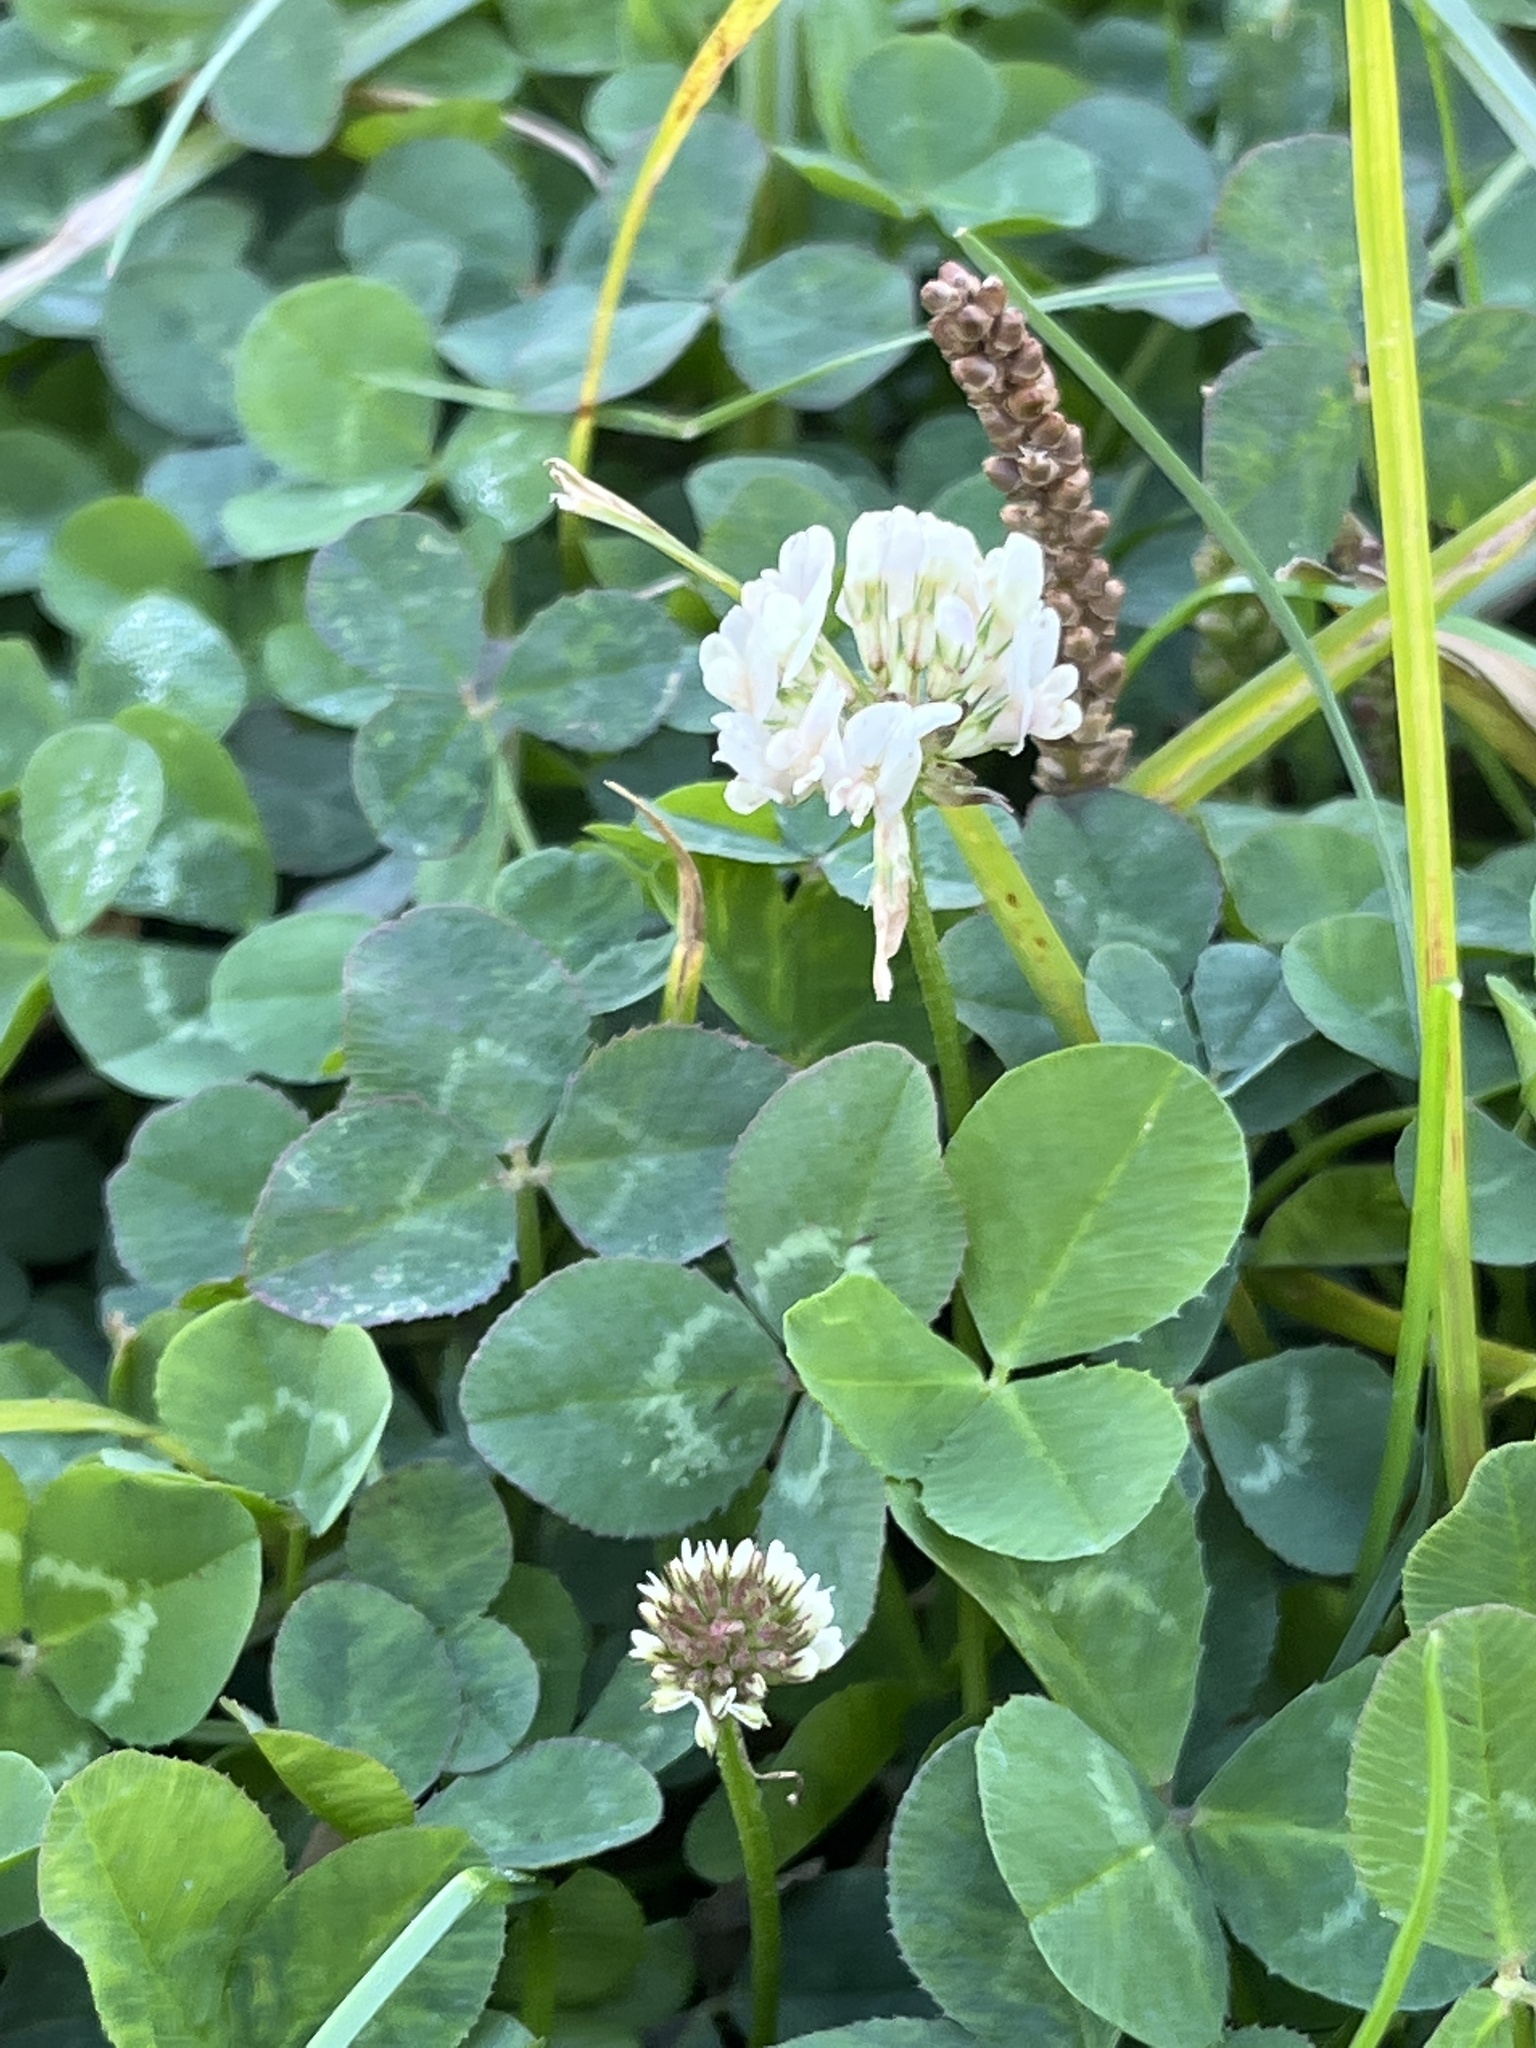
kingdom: Plantae
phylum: Tracheophyta
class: Magnoliopsida
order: Fabales
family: Fabaceae
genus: Trifolium
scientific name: Trifolium repens
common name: White clover
